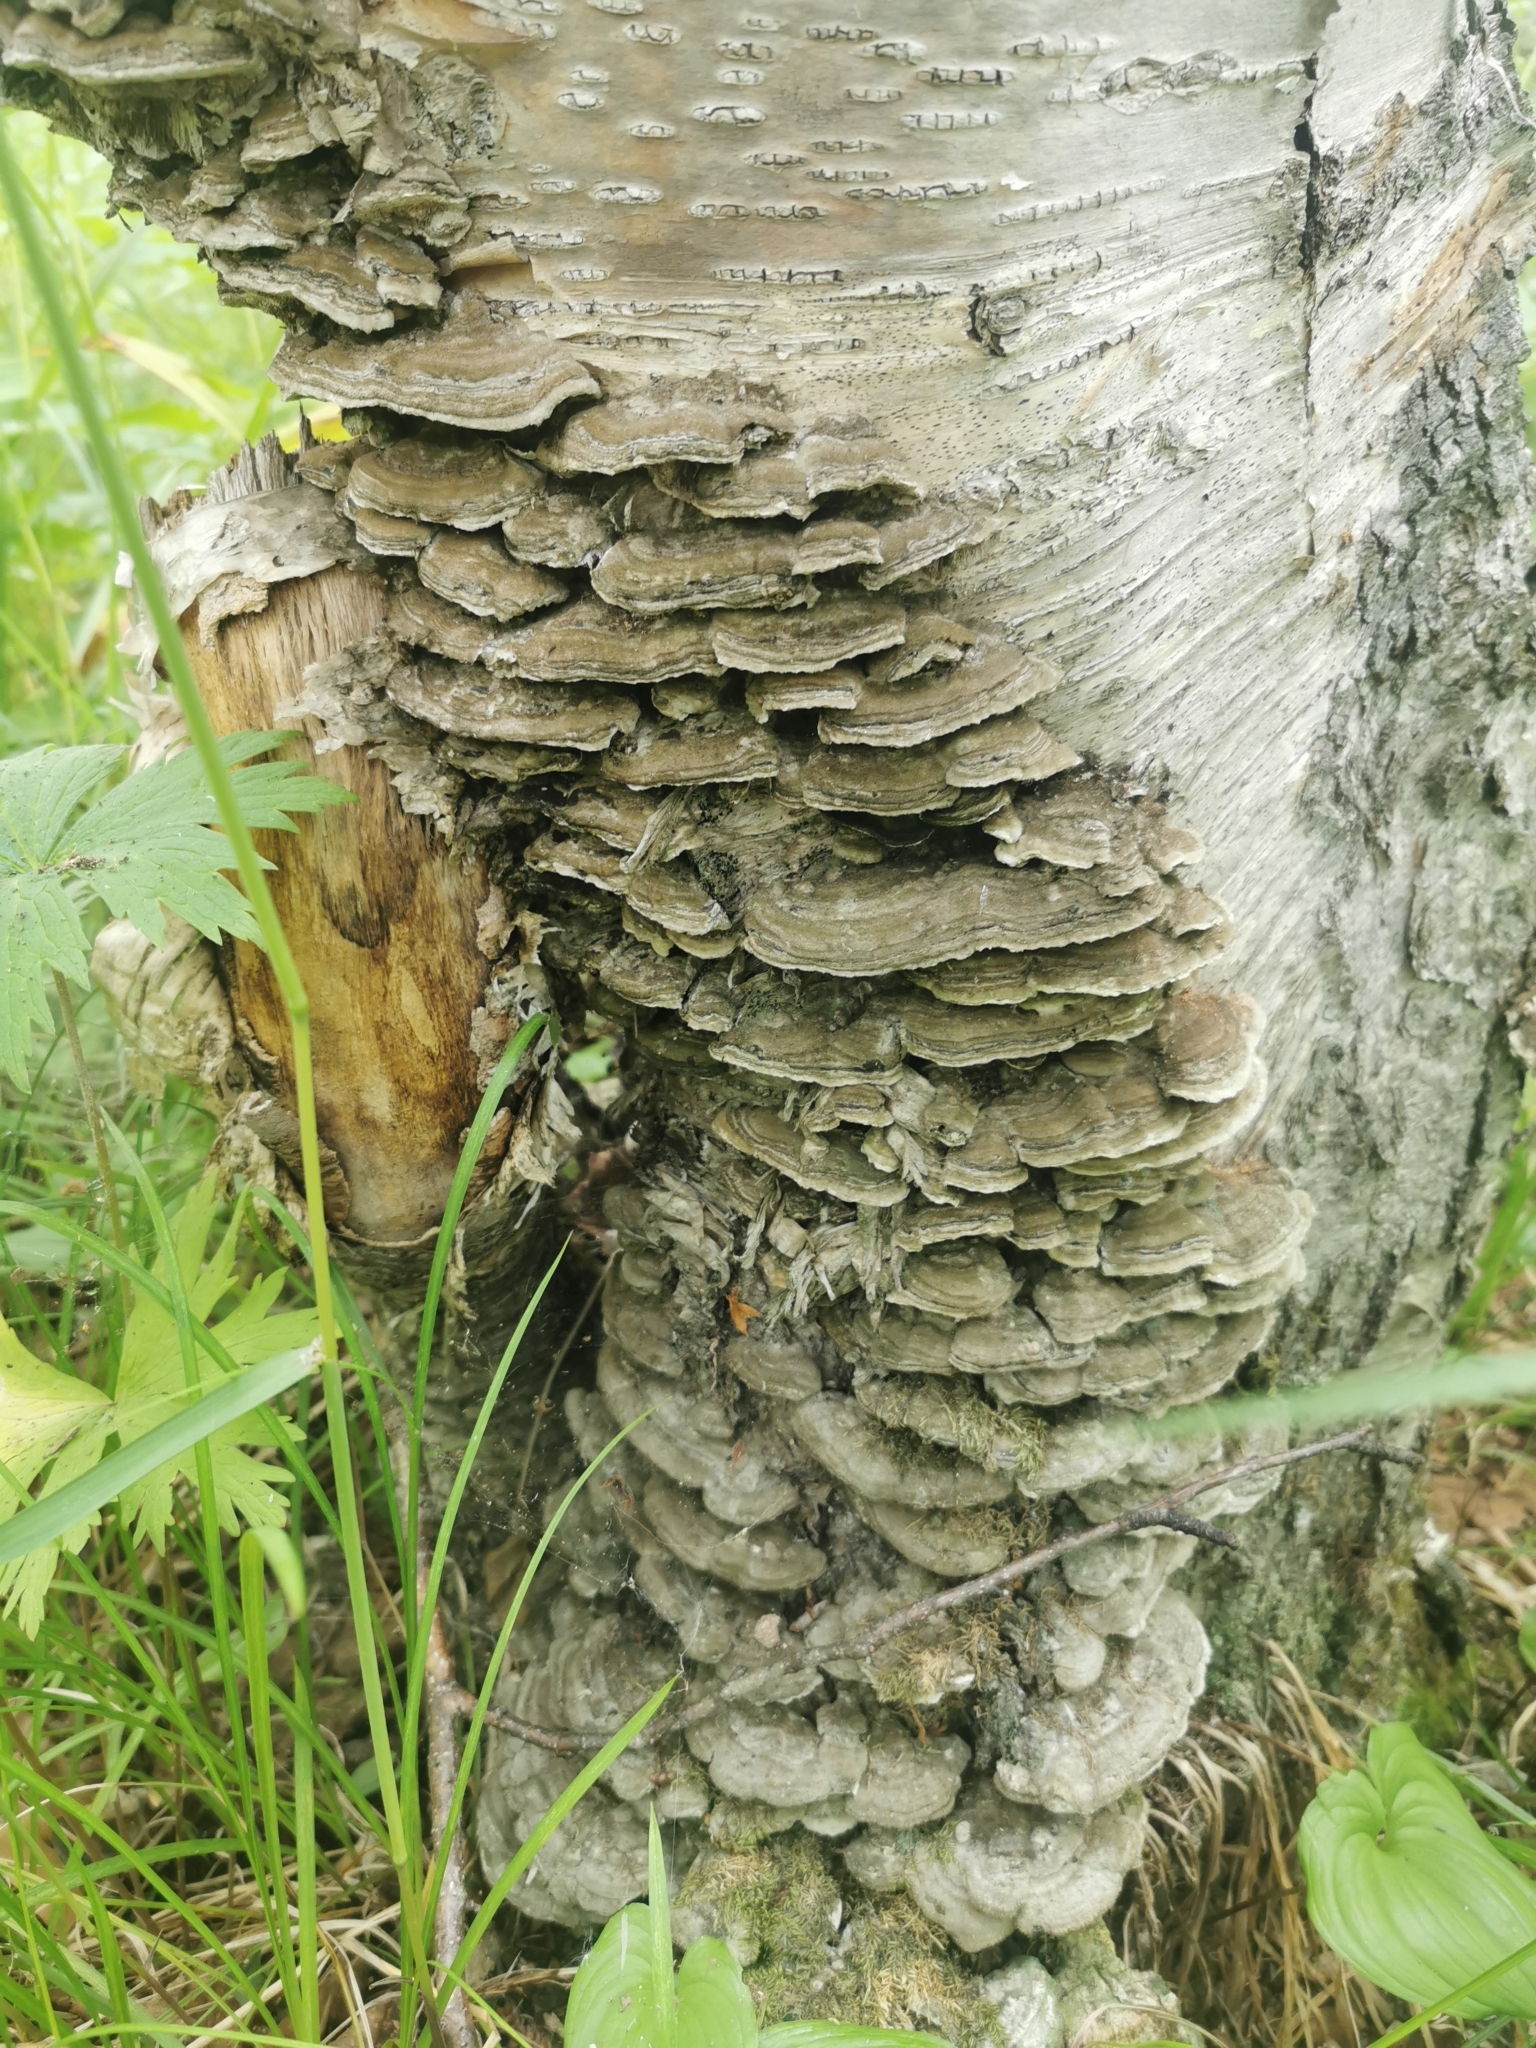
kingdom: Fungi
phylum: Basidiomycota
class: Agaricomycetes
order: Polyporales
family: Cerrenaceae
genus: Cerrena
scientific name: Cerrena unicolor
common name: Mossy maze polypore
